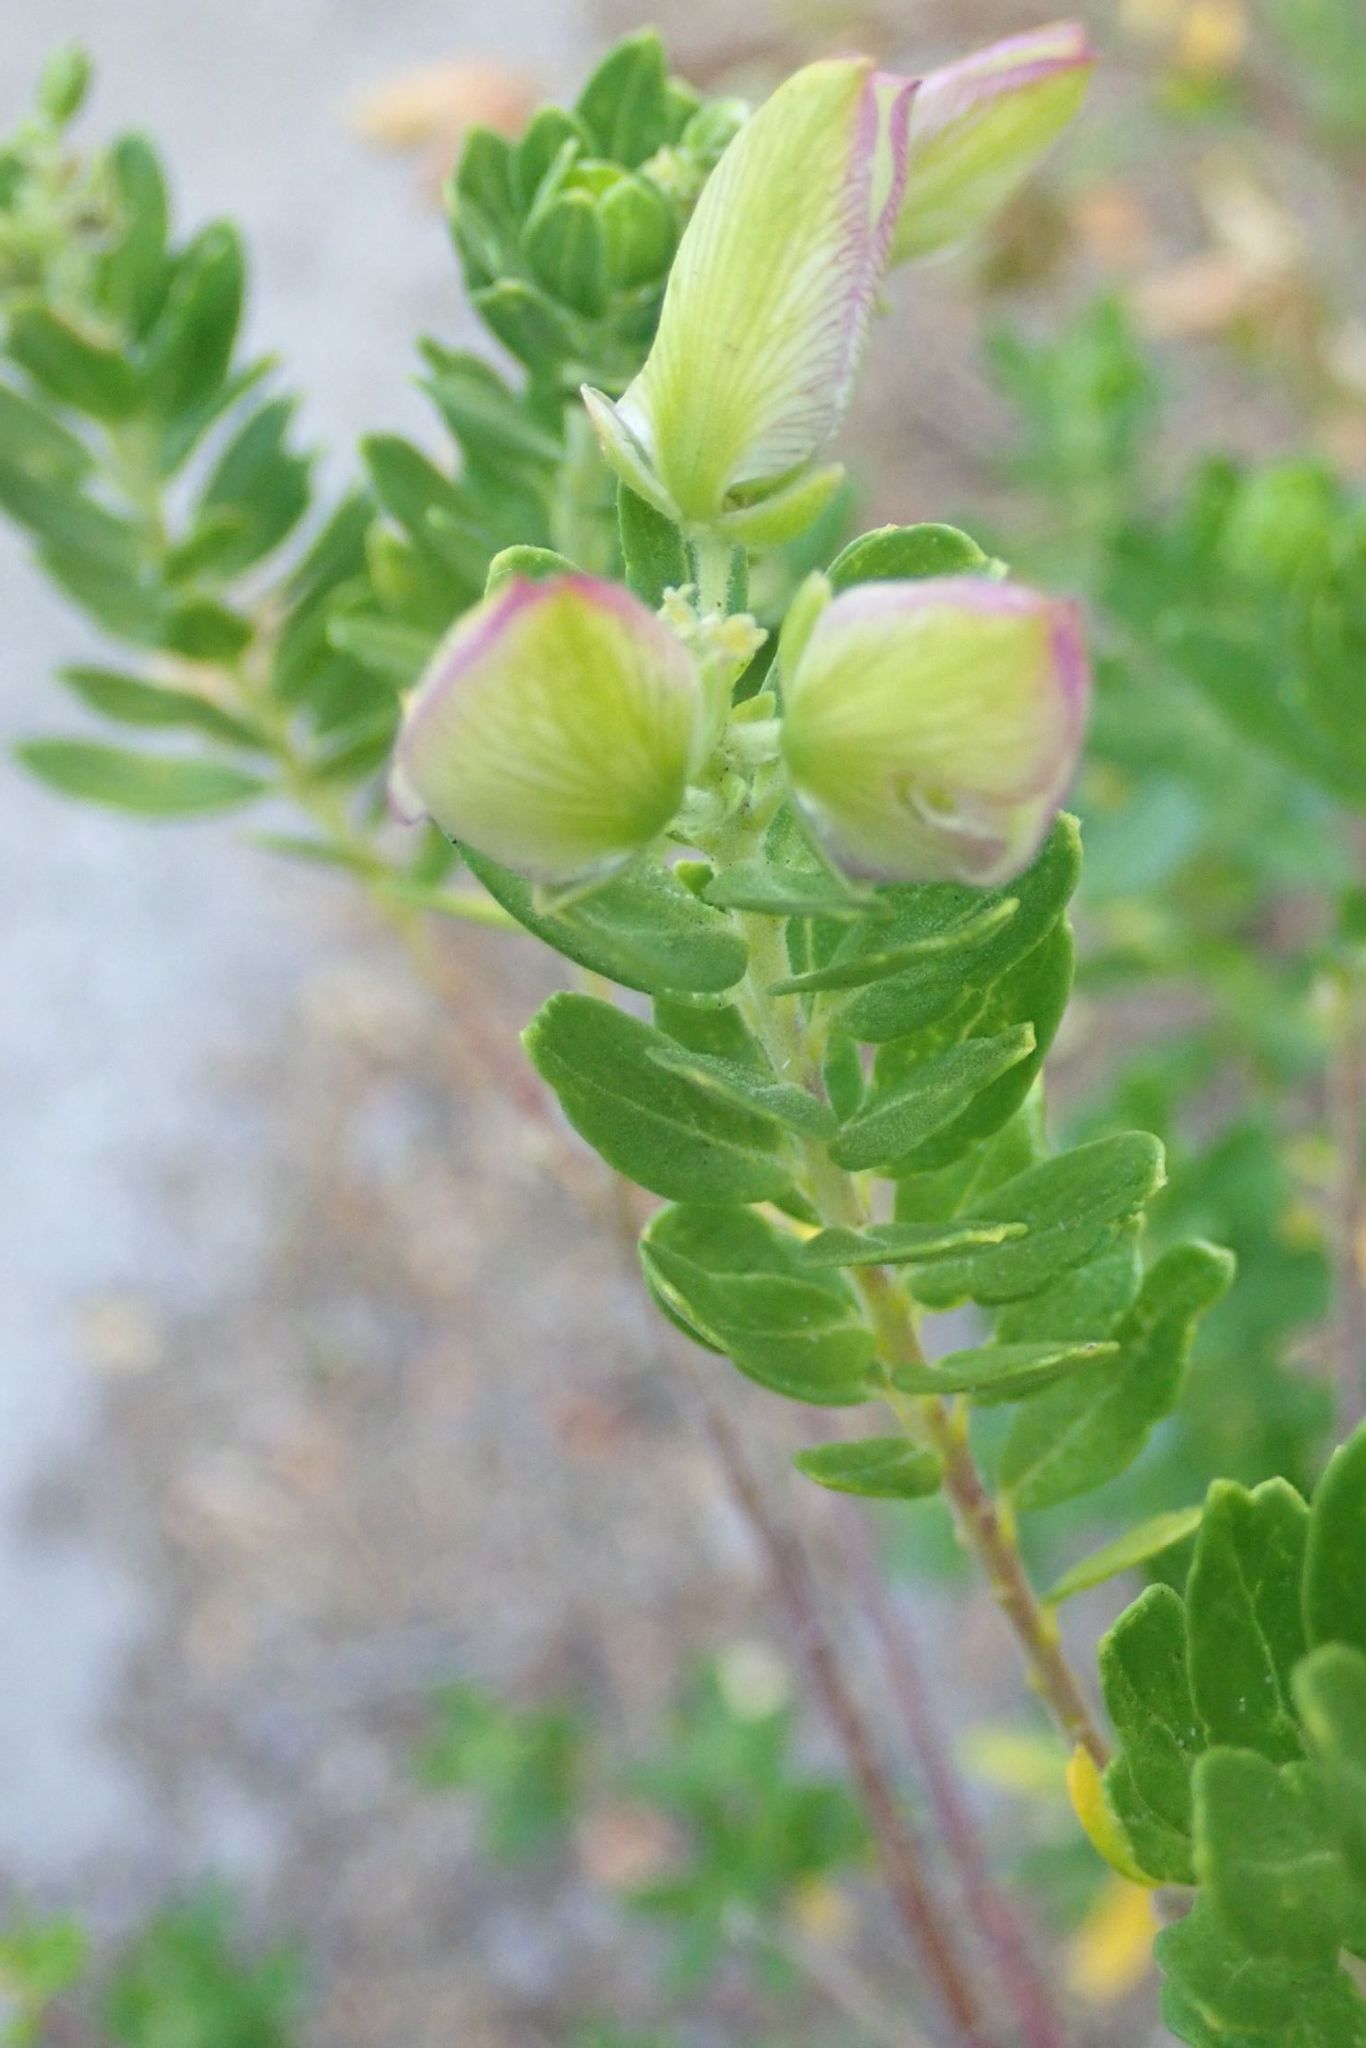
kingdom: Plantae
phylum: Tracheophyta
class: Magnoliopsida
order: Fabales
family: Polygalaceae
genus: Polygala
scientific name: Polygala myrtifolia
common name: Myrtle-leaf milkwort
